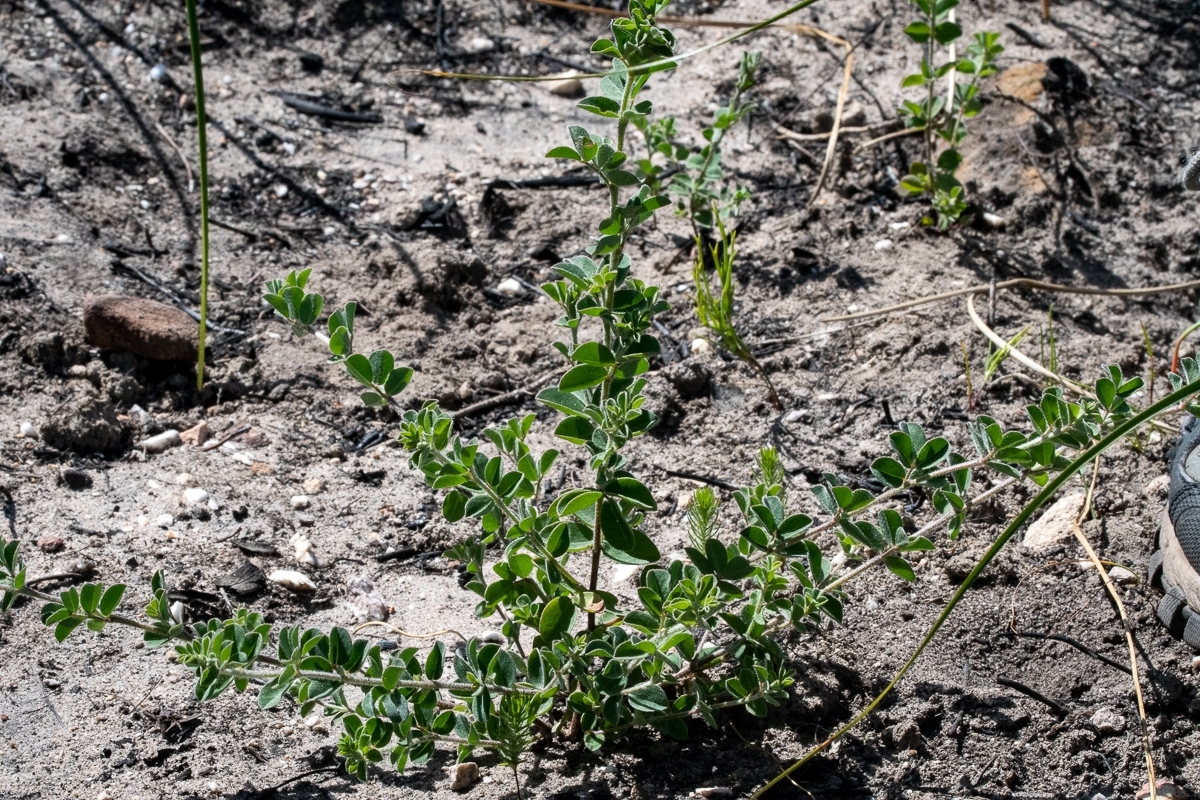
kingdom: Plantae
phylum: Tracheophyta
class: Magnoliopsida
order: Fabales
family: Fabaceae
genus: Indigofera
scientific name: Indigofera alopecuroides
